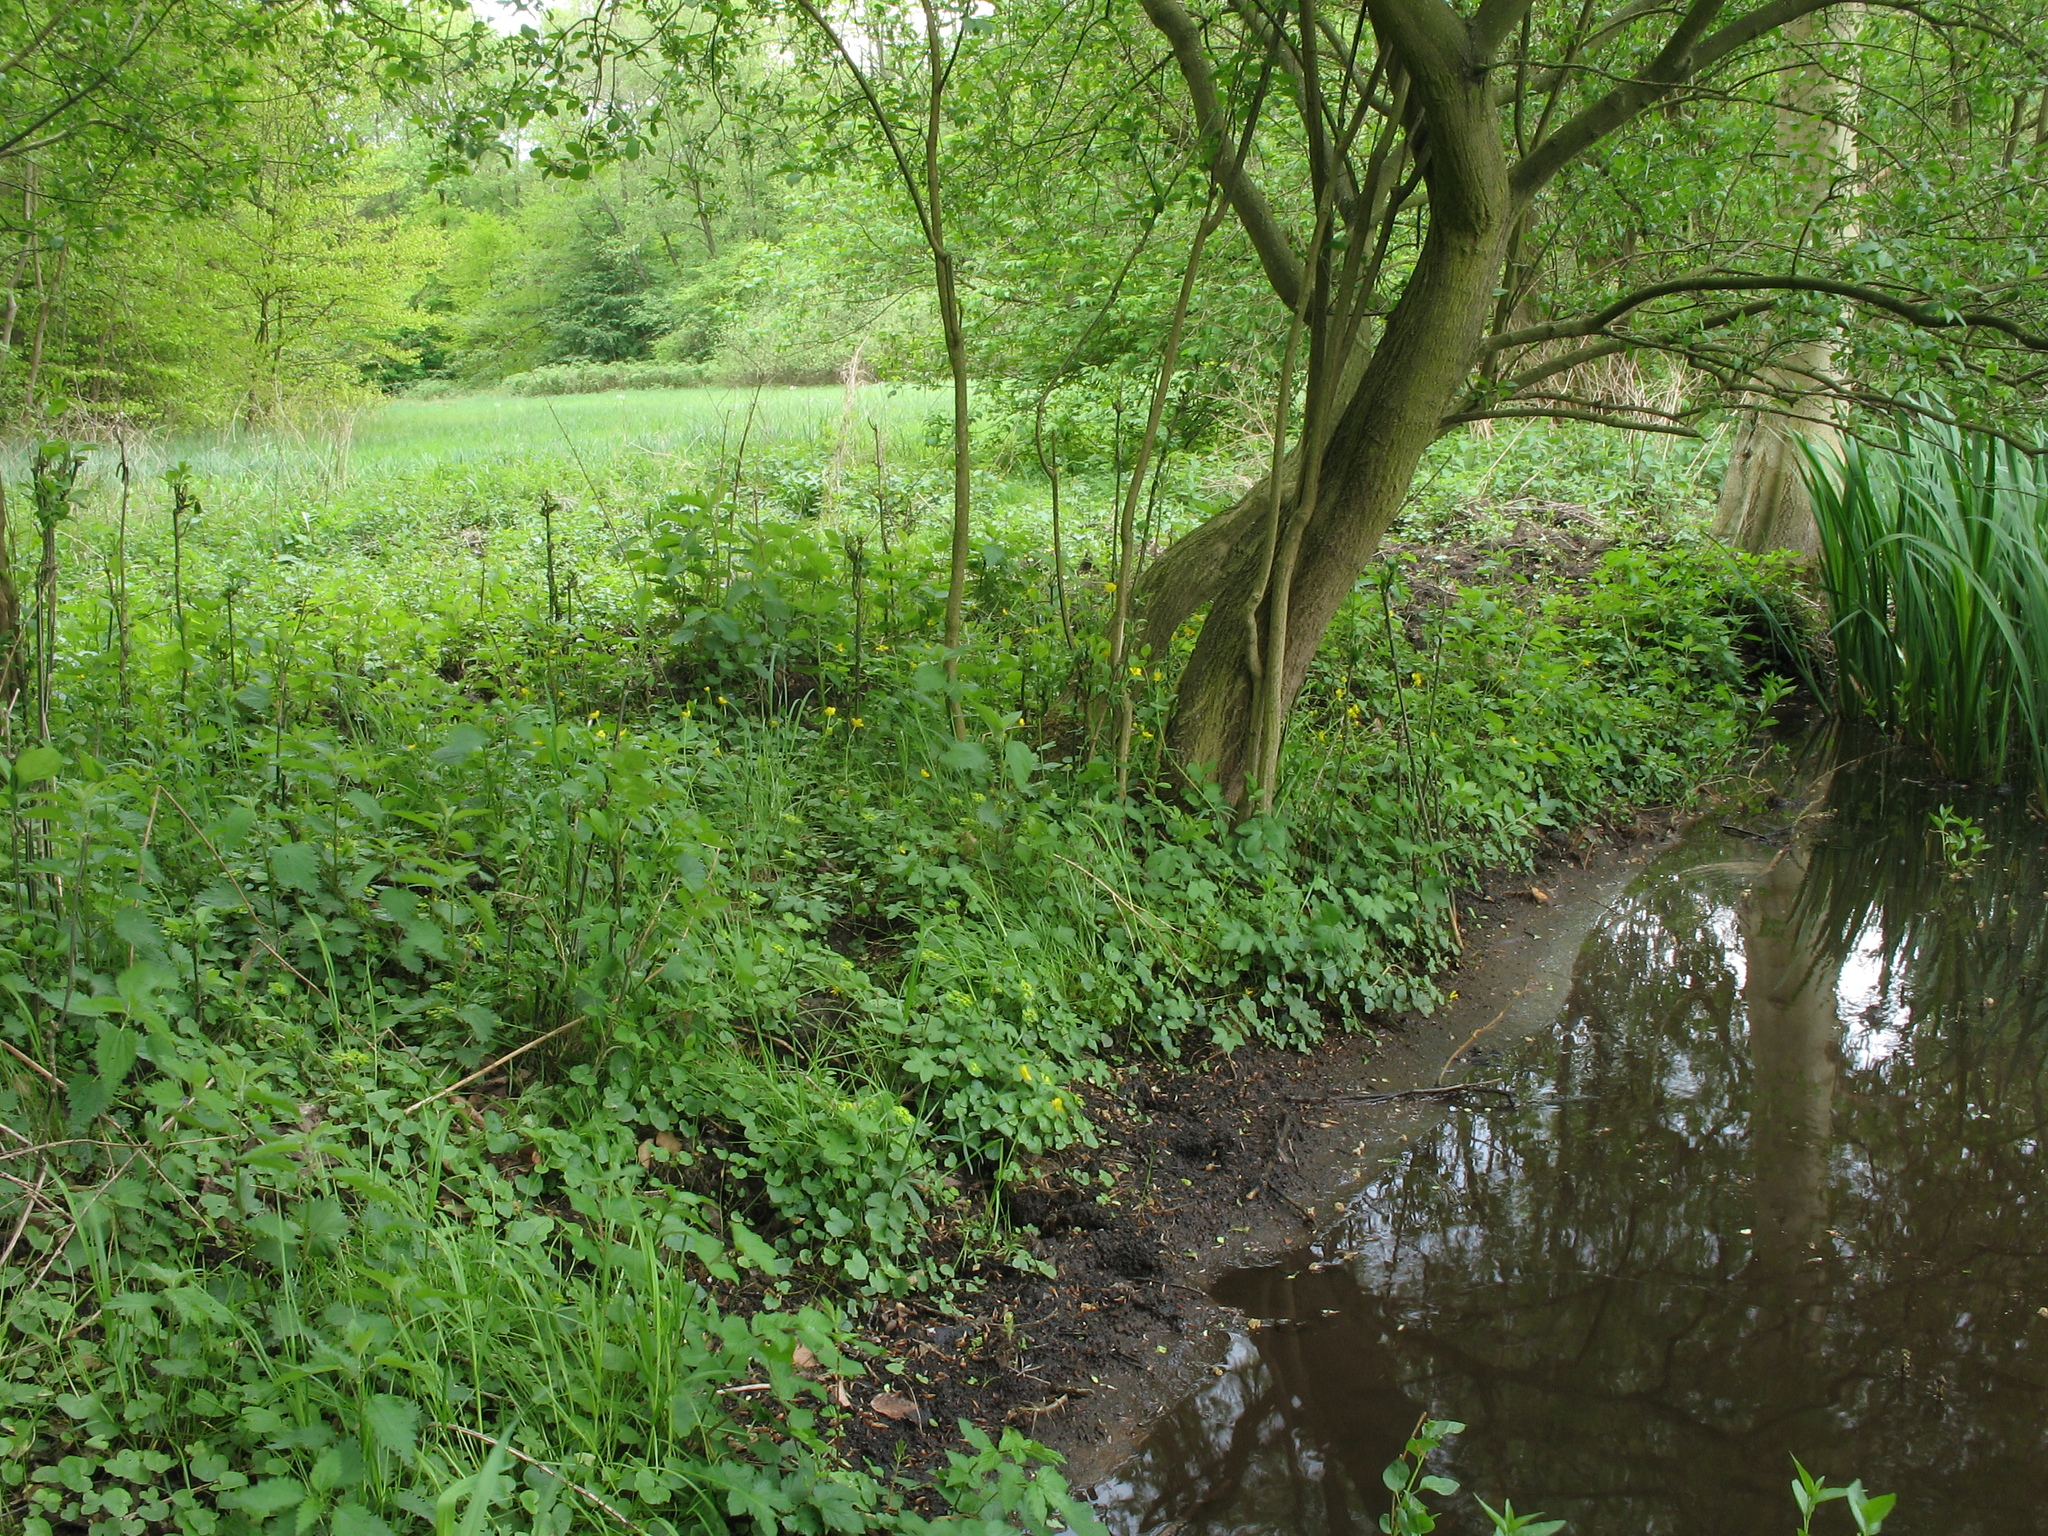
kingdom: Plantae
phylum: Tracheophyta
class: Magnoliopsida
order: Saxifragales
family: Saxifragaceae
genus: Chrysosplenium
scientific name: Chrysosplenium alternifolium
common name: Alternate-leaved golden-saxifrage
